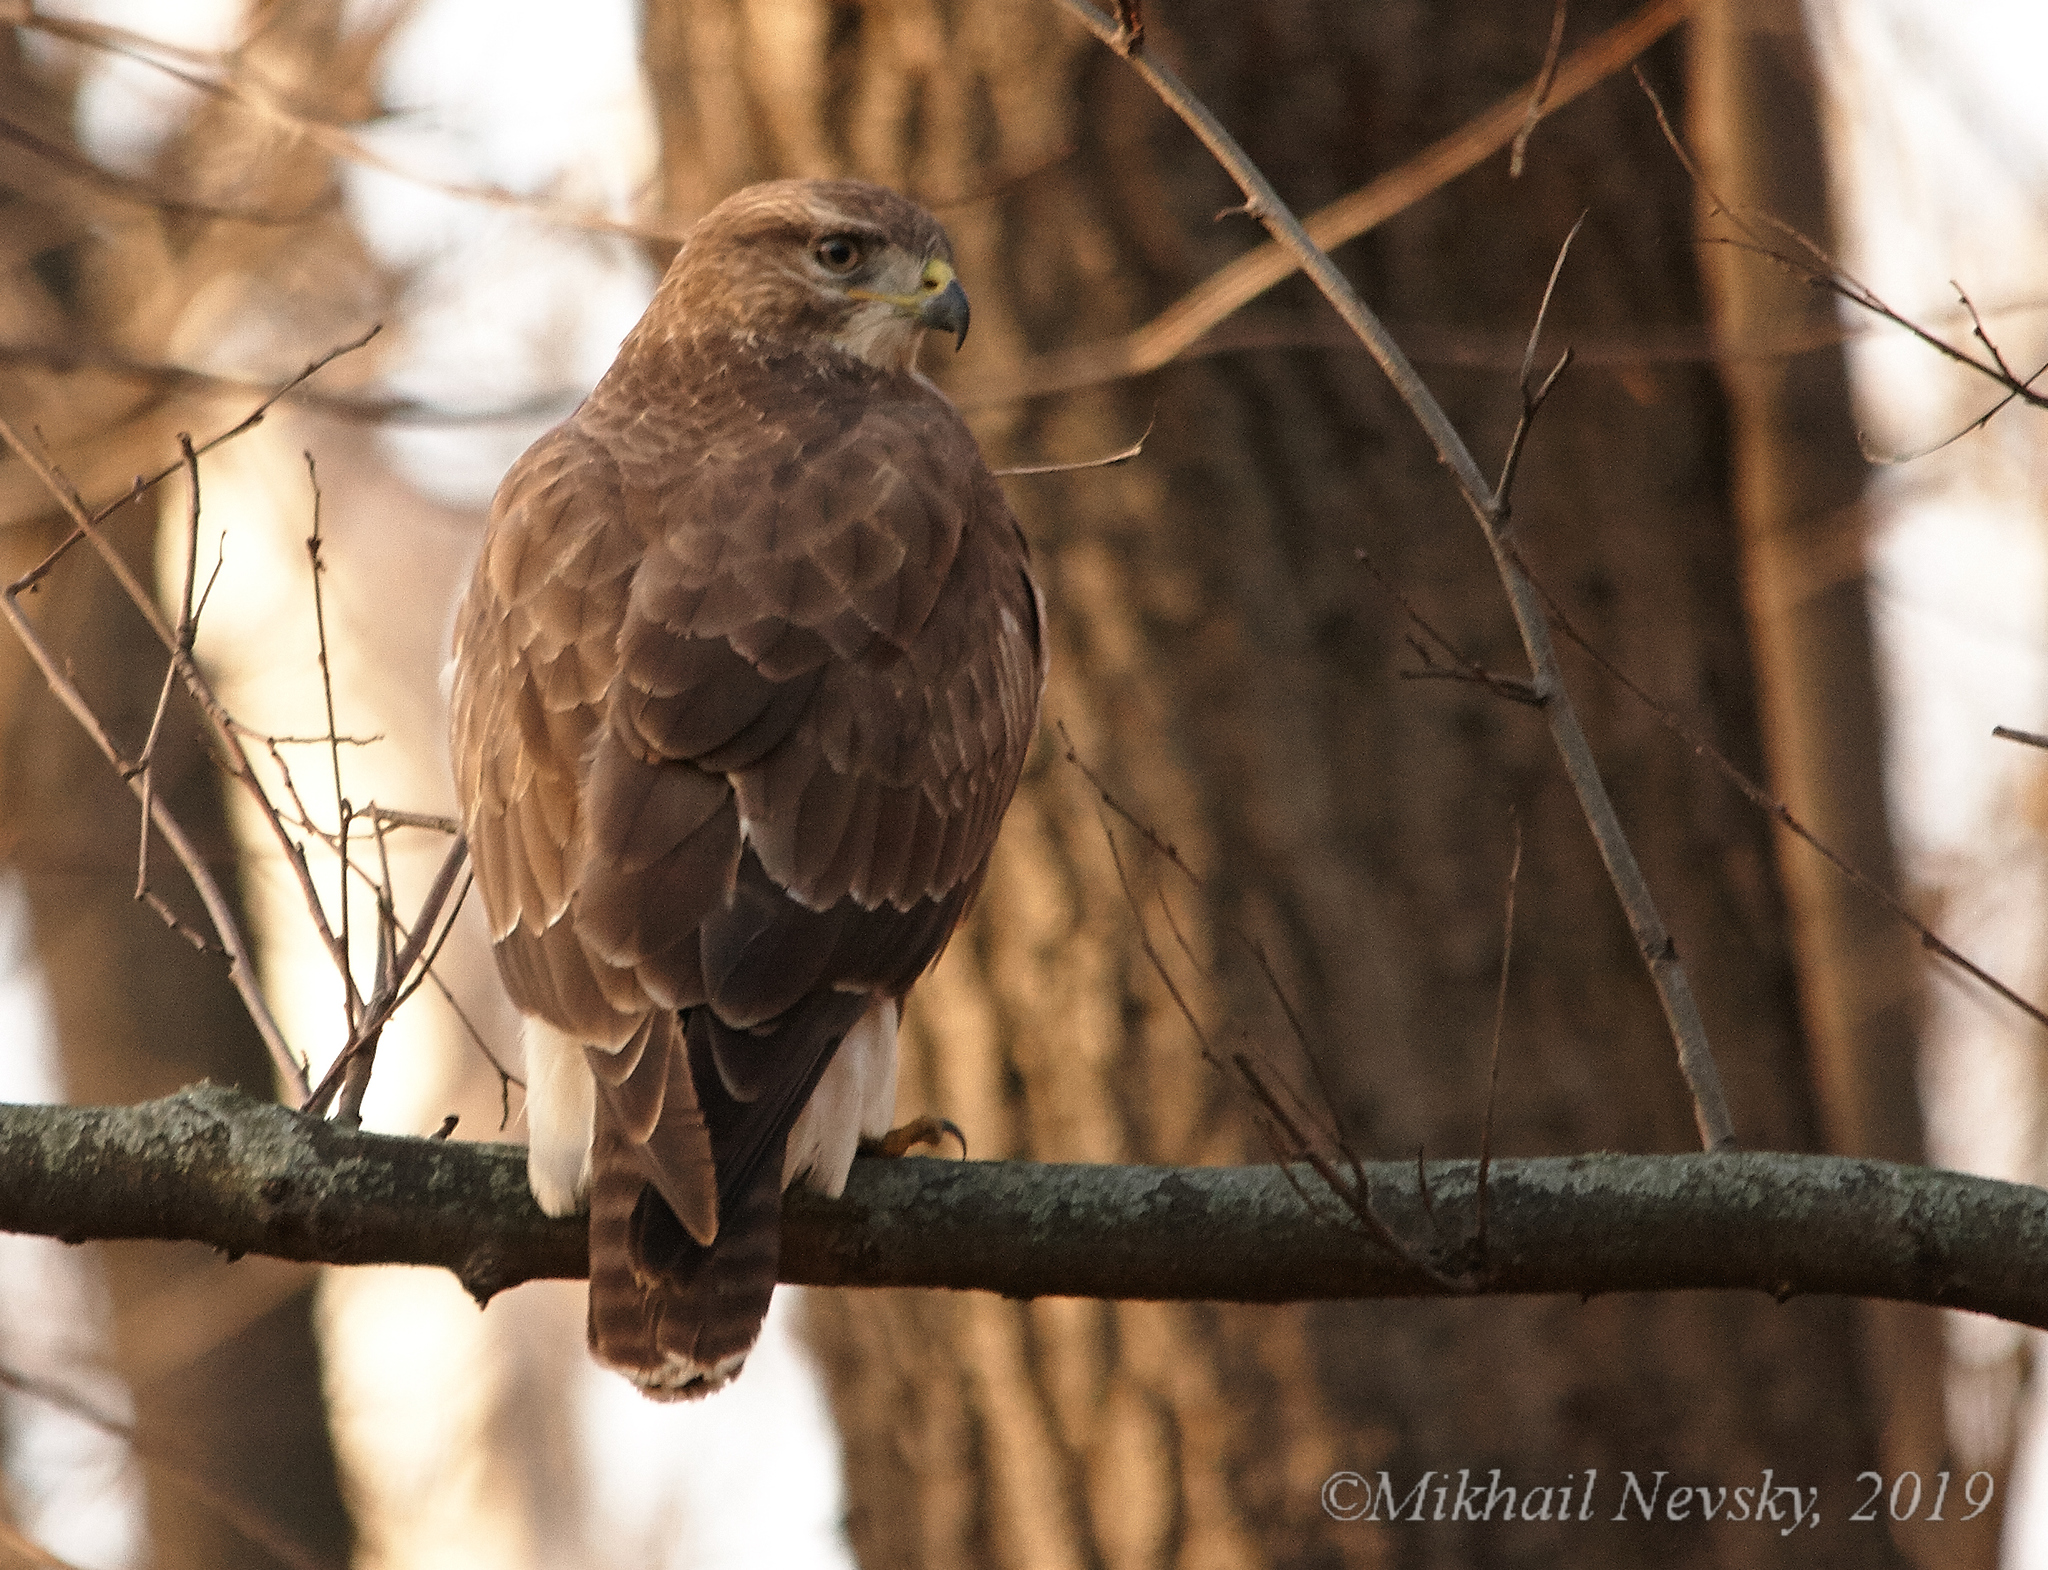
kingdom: Animalia
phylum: Chordata
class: Aves
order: Accipitriformes
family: Accipitridae
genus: Buteo
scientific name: Buteo buteo
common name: Common buzzard
